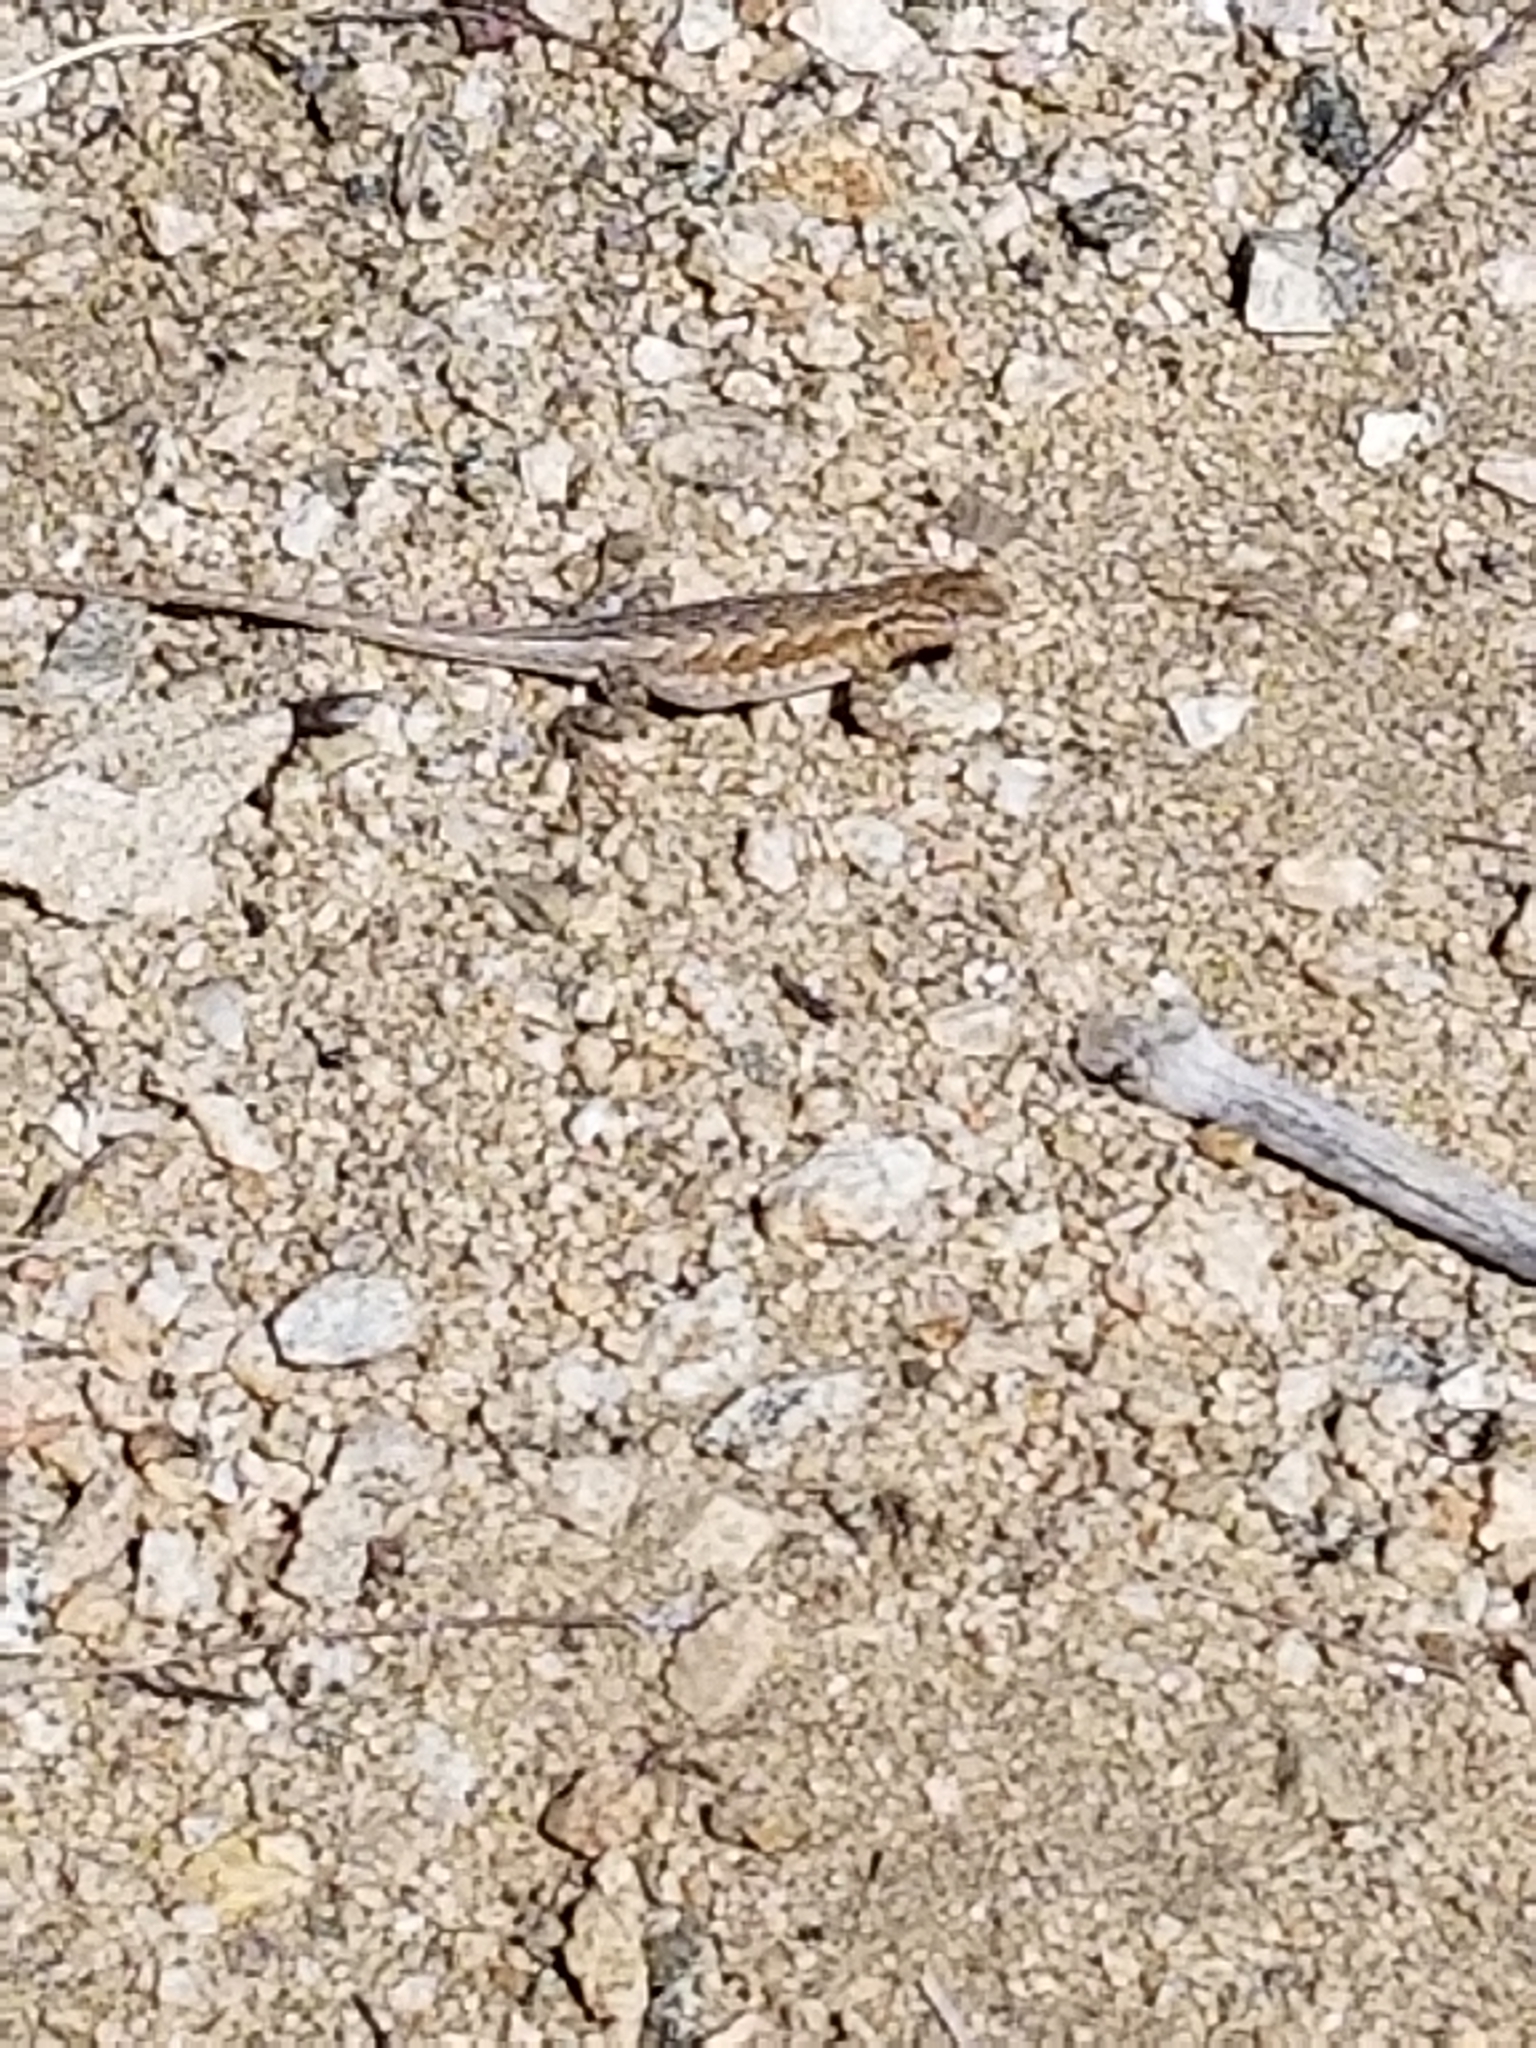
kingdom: Animalia
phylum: Chordata
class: Squamata
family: Phrynosomatidae
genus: Uta
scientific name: Uta stansburiana
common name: Side-blotched lizard
